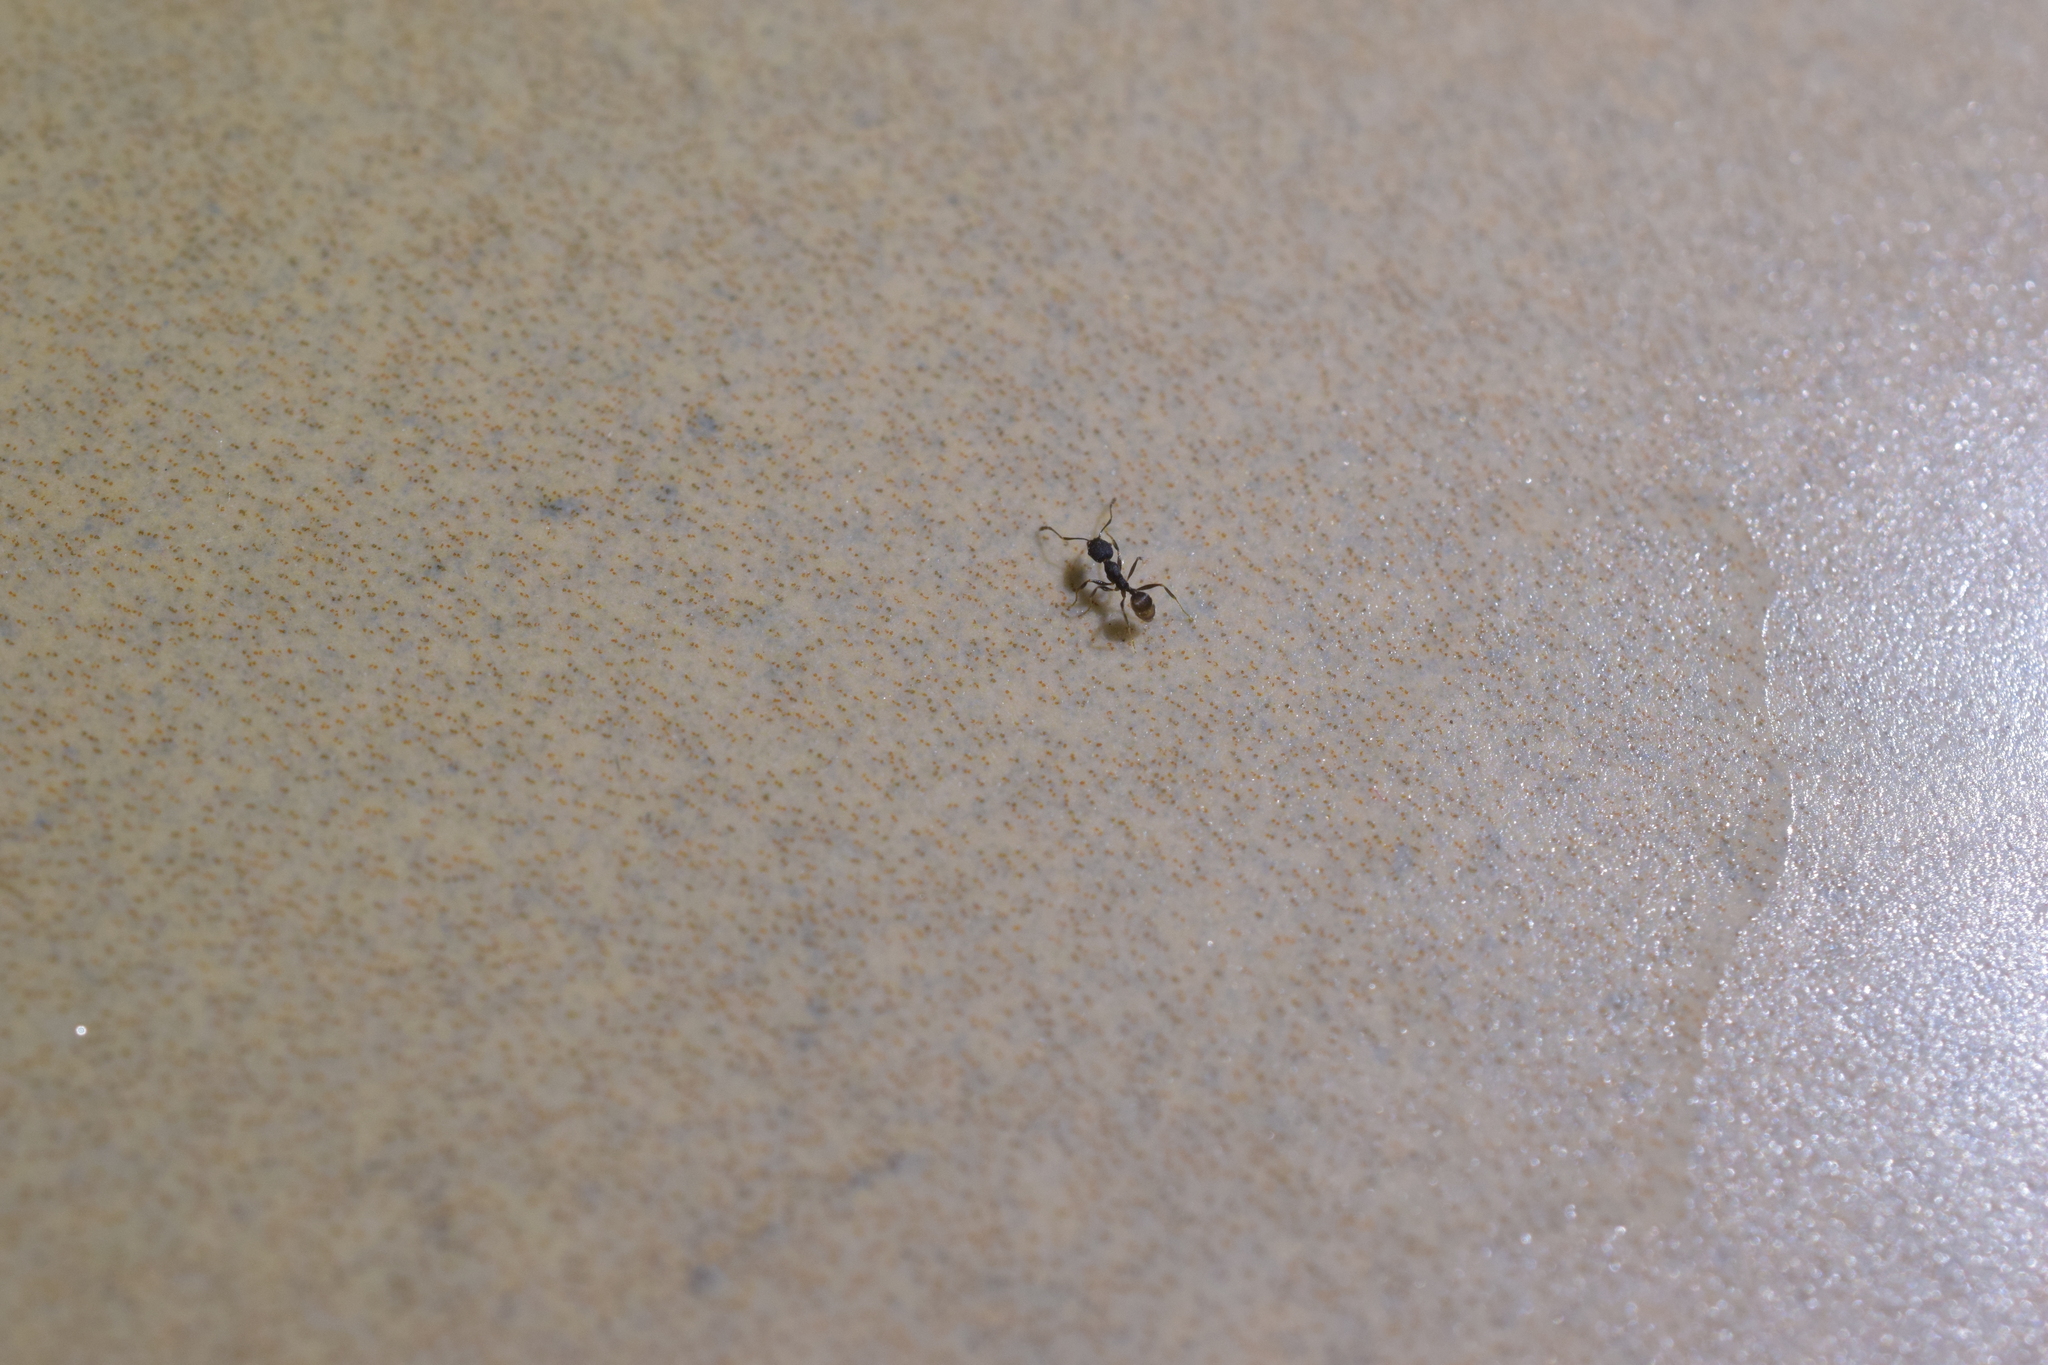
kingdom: Animalia
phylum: Arthropoda
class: Insecta
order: Hymenoptera
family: Formicidae
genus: Pheidole
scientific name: Pheidole punctatissima
